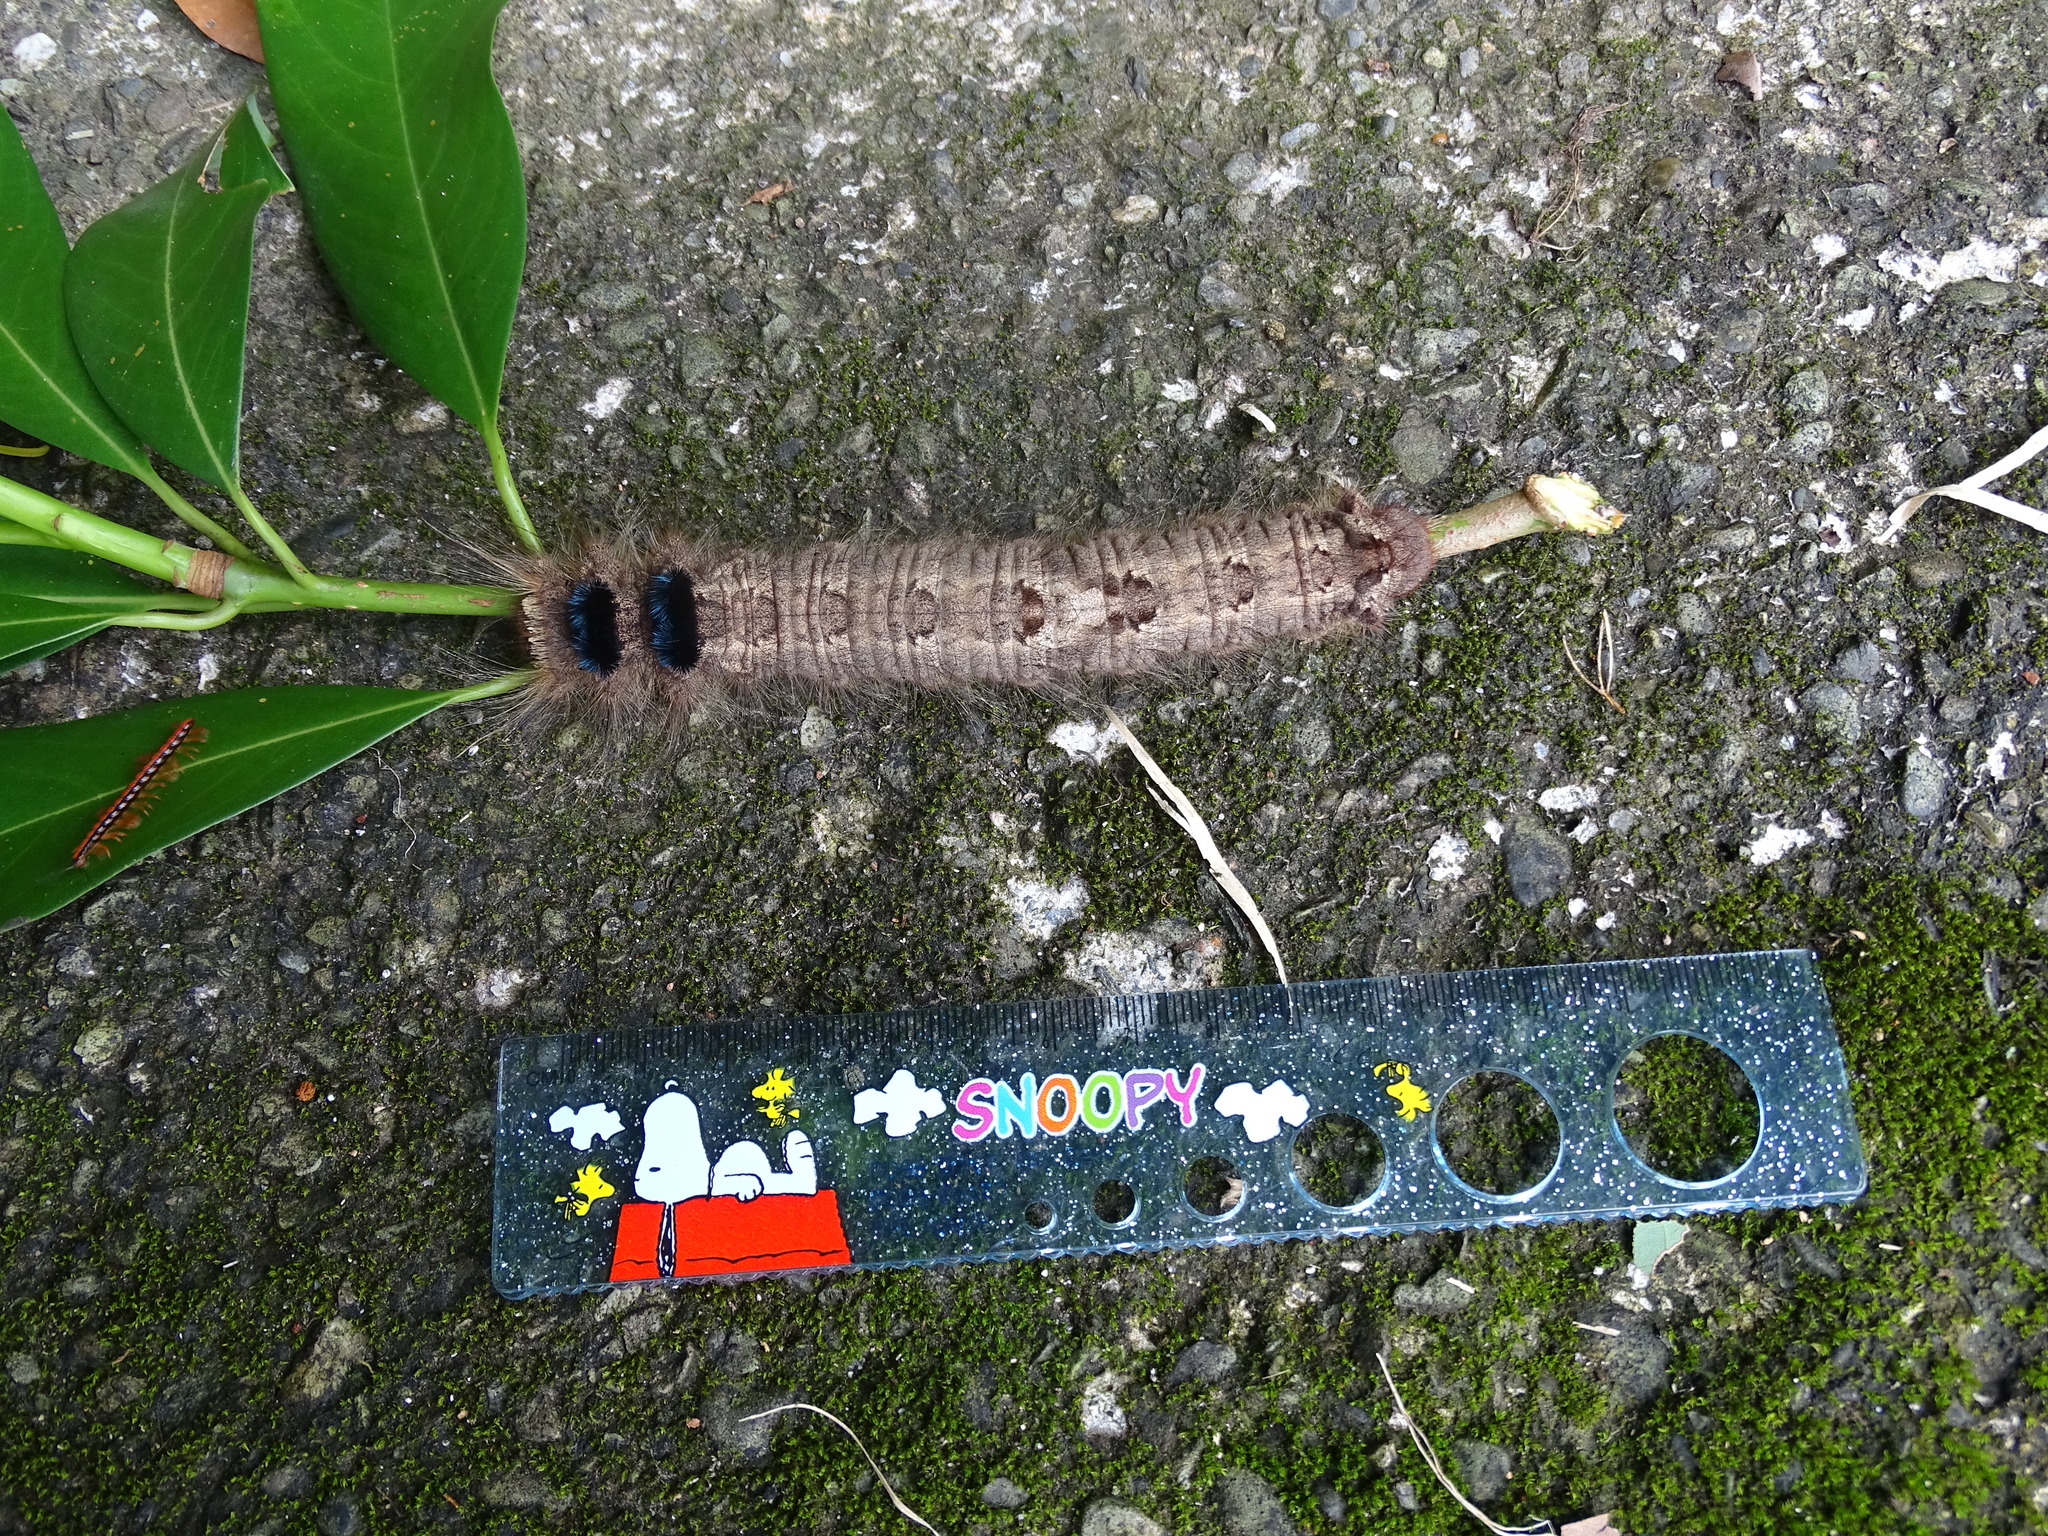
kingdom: Animalia
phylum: Arthropoda
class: Insecta
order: Lepidoptera
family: Lasiocampidae
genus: Lebeda
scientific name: Lebeda nobilis
